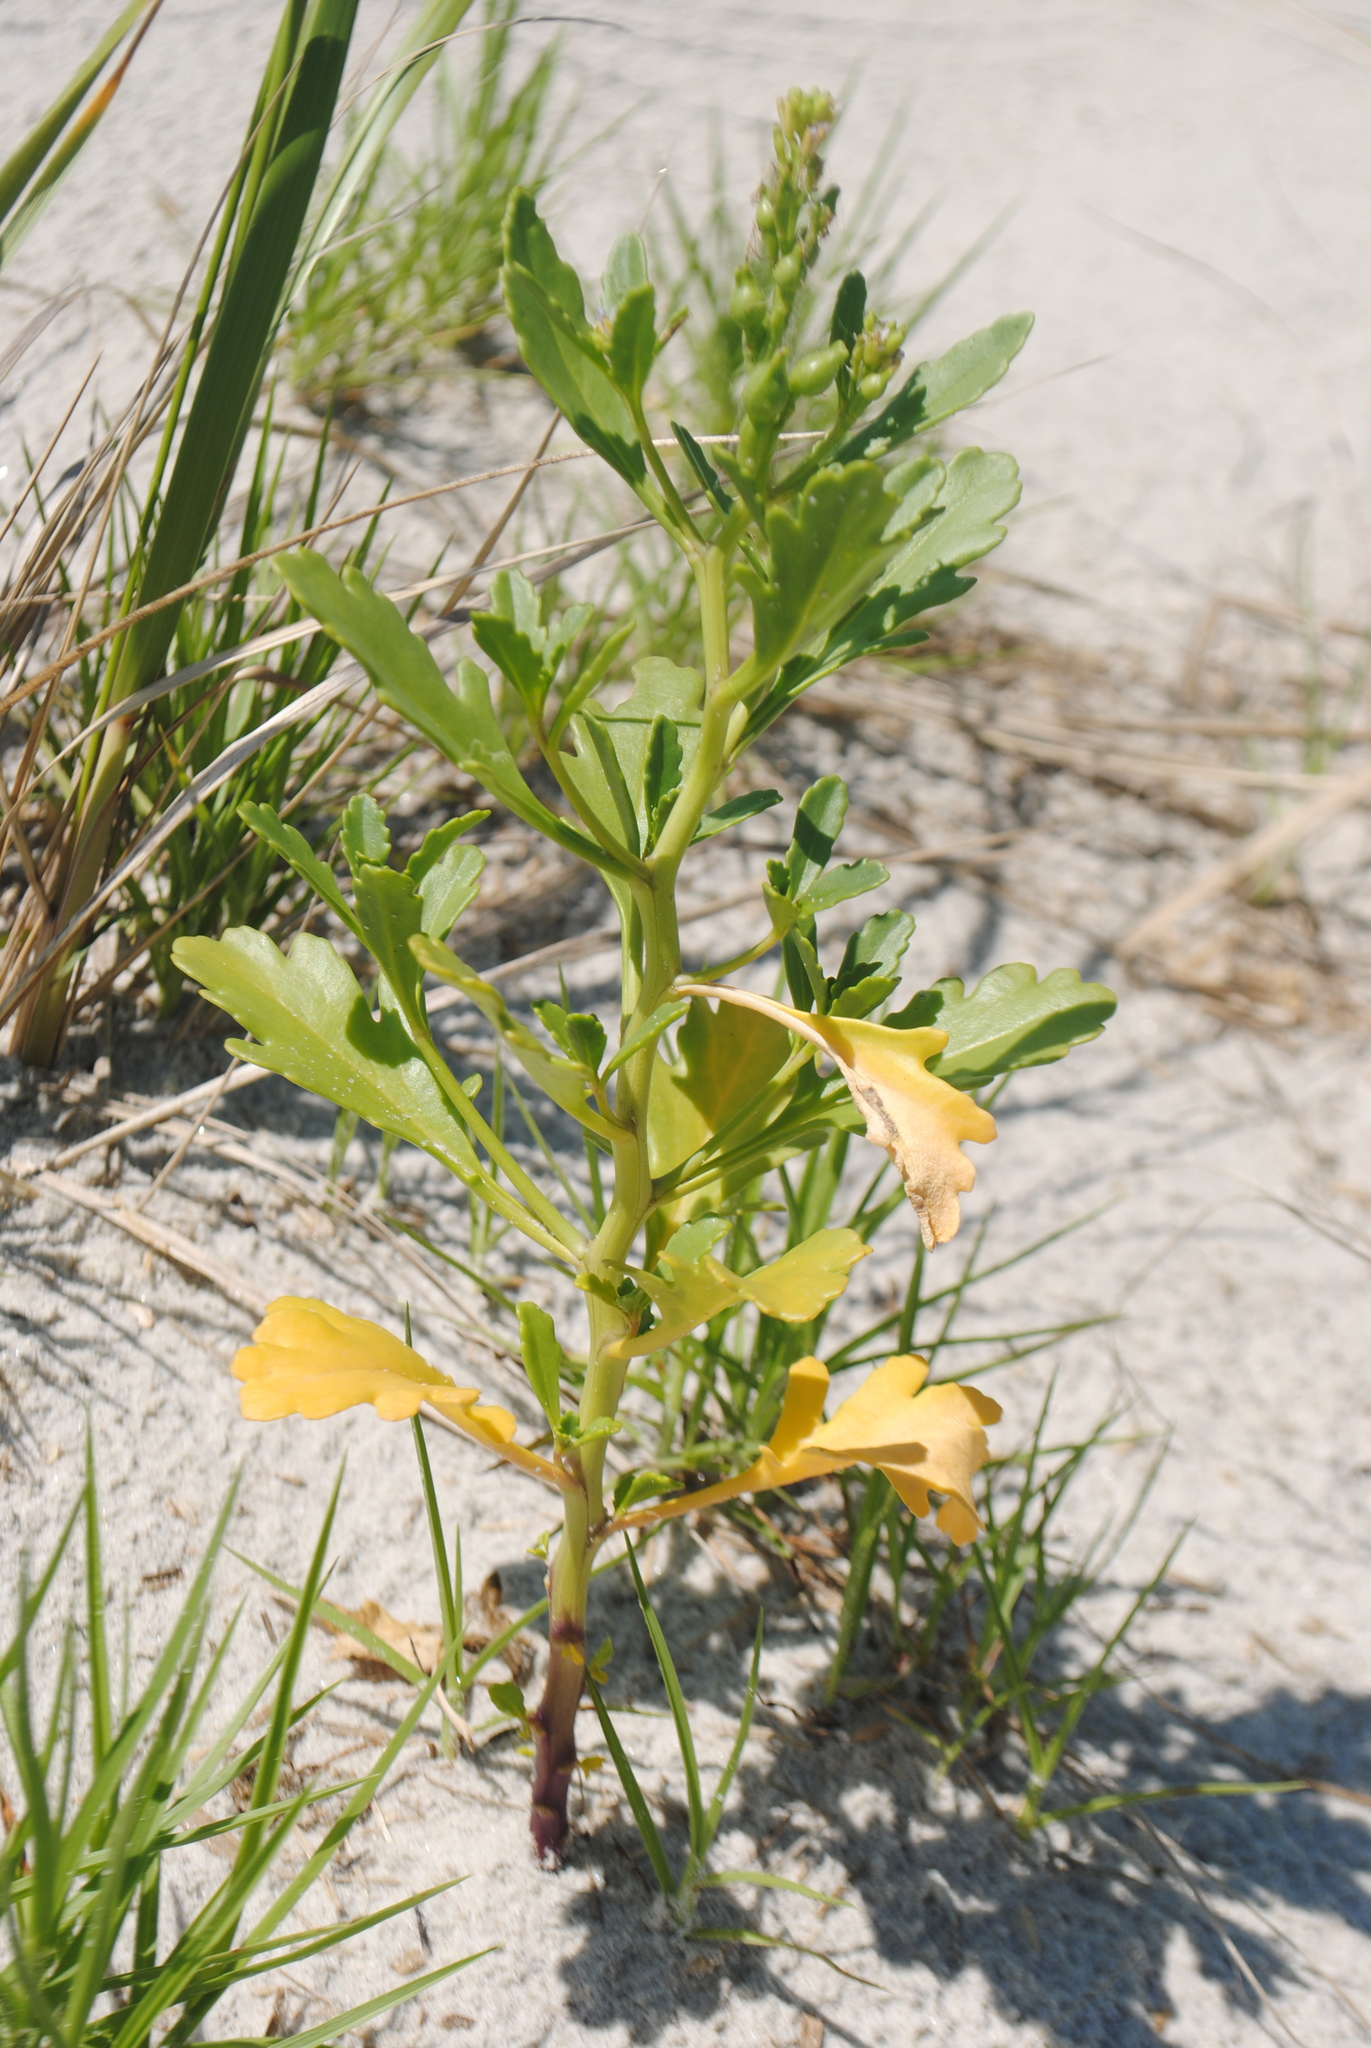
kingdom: Plantae
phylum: Tracheophyta
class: Magnoliopsida
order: Brassicales
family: Brassicaceae
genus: Cakile
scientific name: Cakile edentula
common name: American sea rocket
